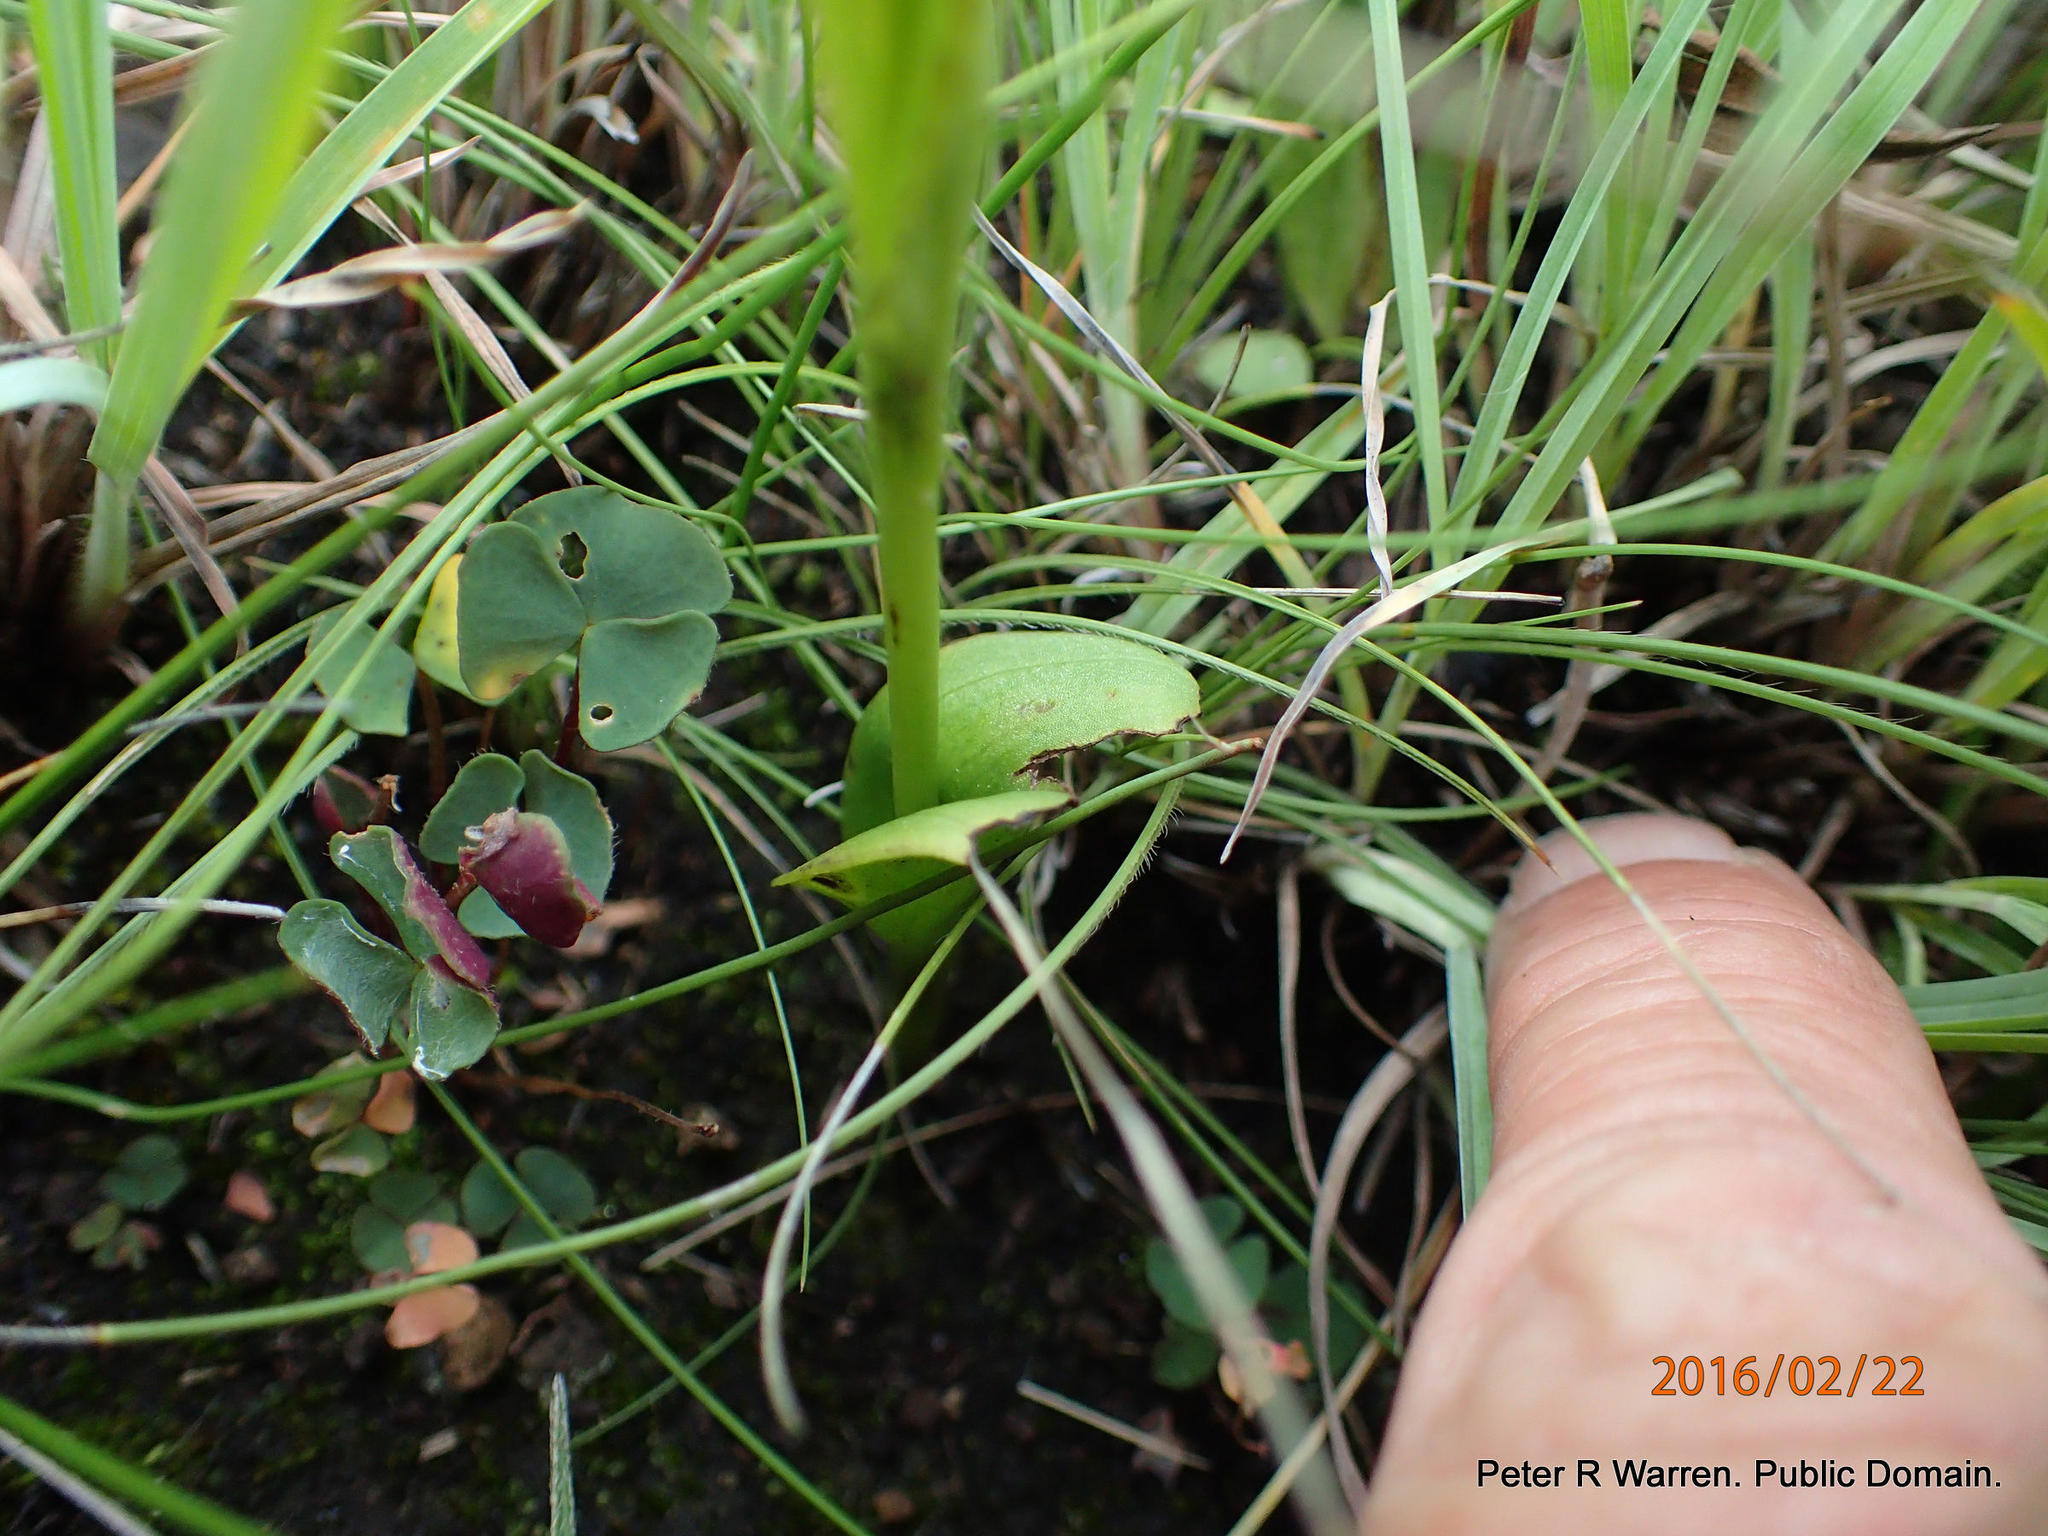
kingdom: Plantae
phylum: Tracheophyta
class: Liliopsida
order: Asparagales
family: Orchidaceae
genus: Pterygodium
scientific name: Pterygodium hastatum
